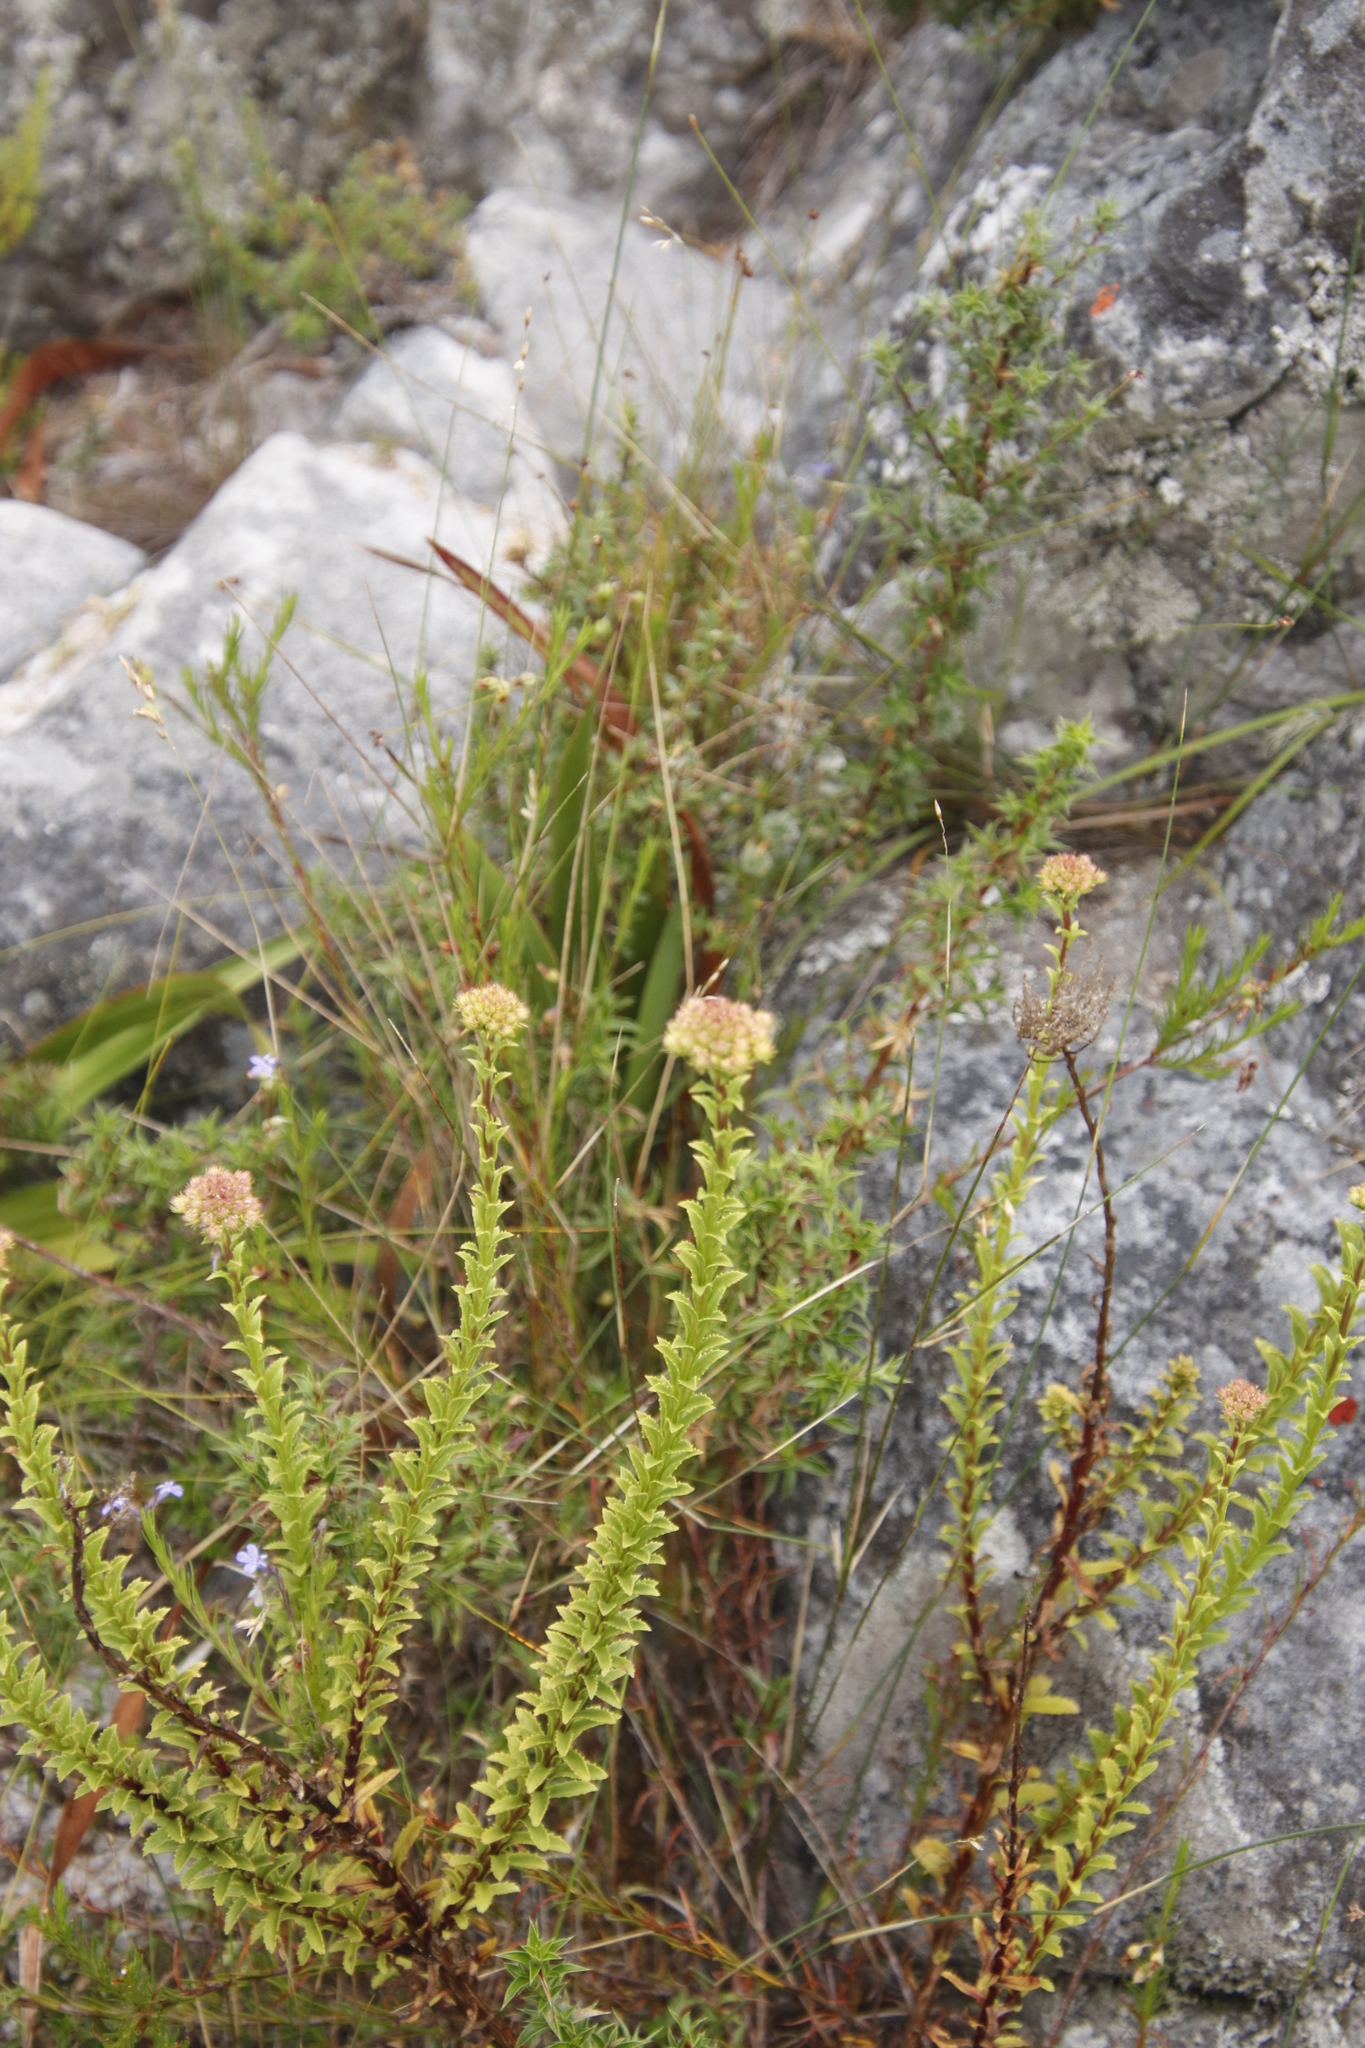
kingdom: Plantae
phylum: Tracheophyta
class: Magnoliopsida
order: Lamiales
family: Scrophulariaceae
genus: Pseudoselago
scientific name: Pseudoselago serrata
